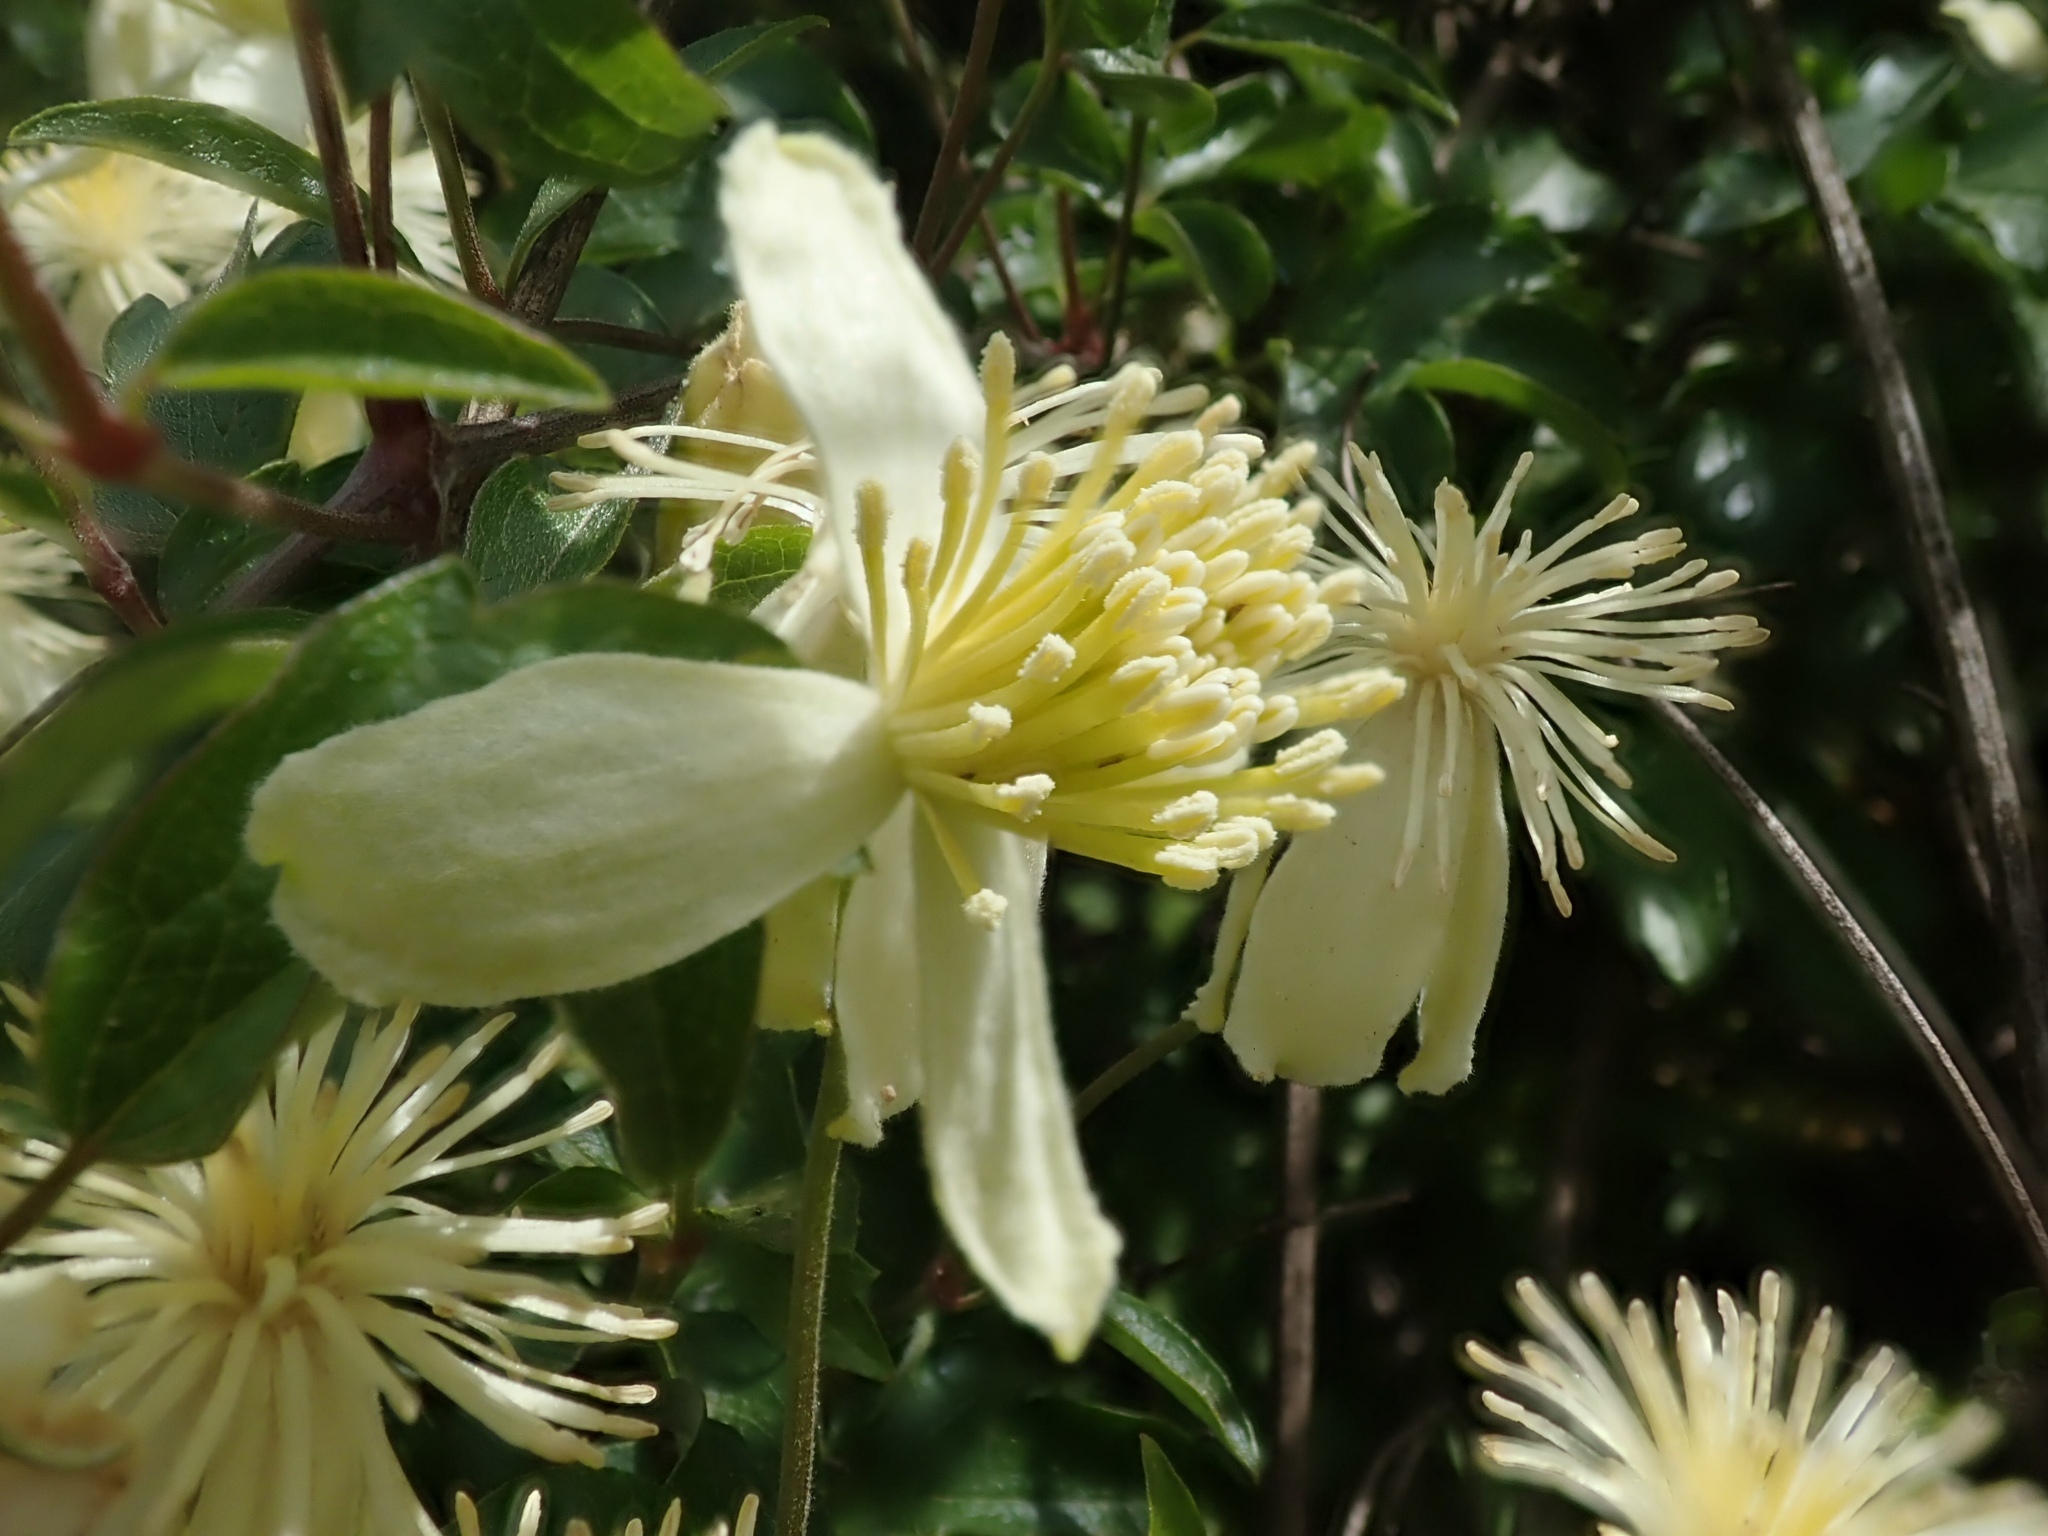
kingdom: Plantae
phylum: Tracheophyta
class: Magnoliopsida
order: Ranunculales
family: Ranunculaceae
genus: Clematis
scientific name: Clematis lasiantha
